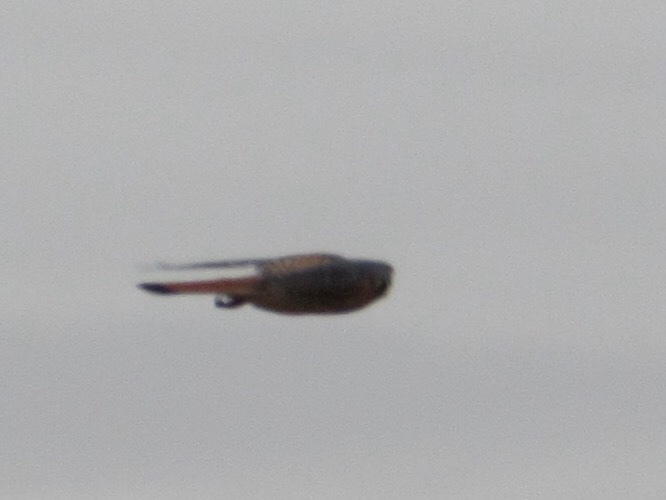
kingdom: Animalia
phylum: Chordata
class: Aves
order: Falconiformes
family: Falconidae
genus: Falco
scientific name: Falco sparverius
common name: American kestrel
